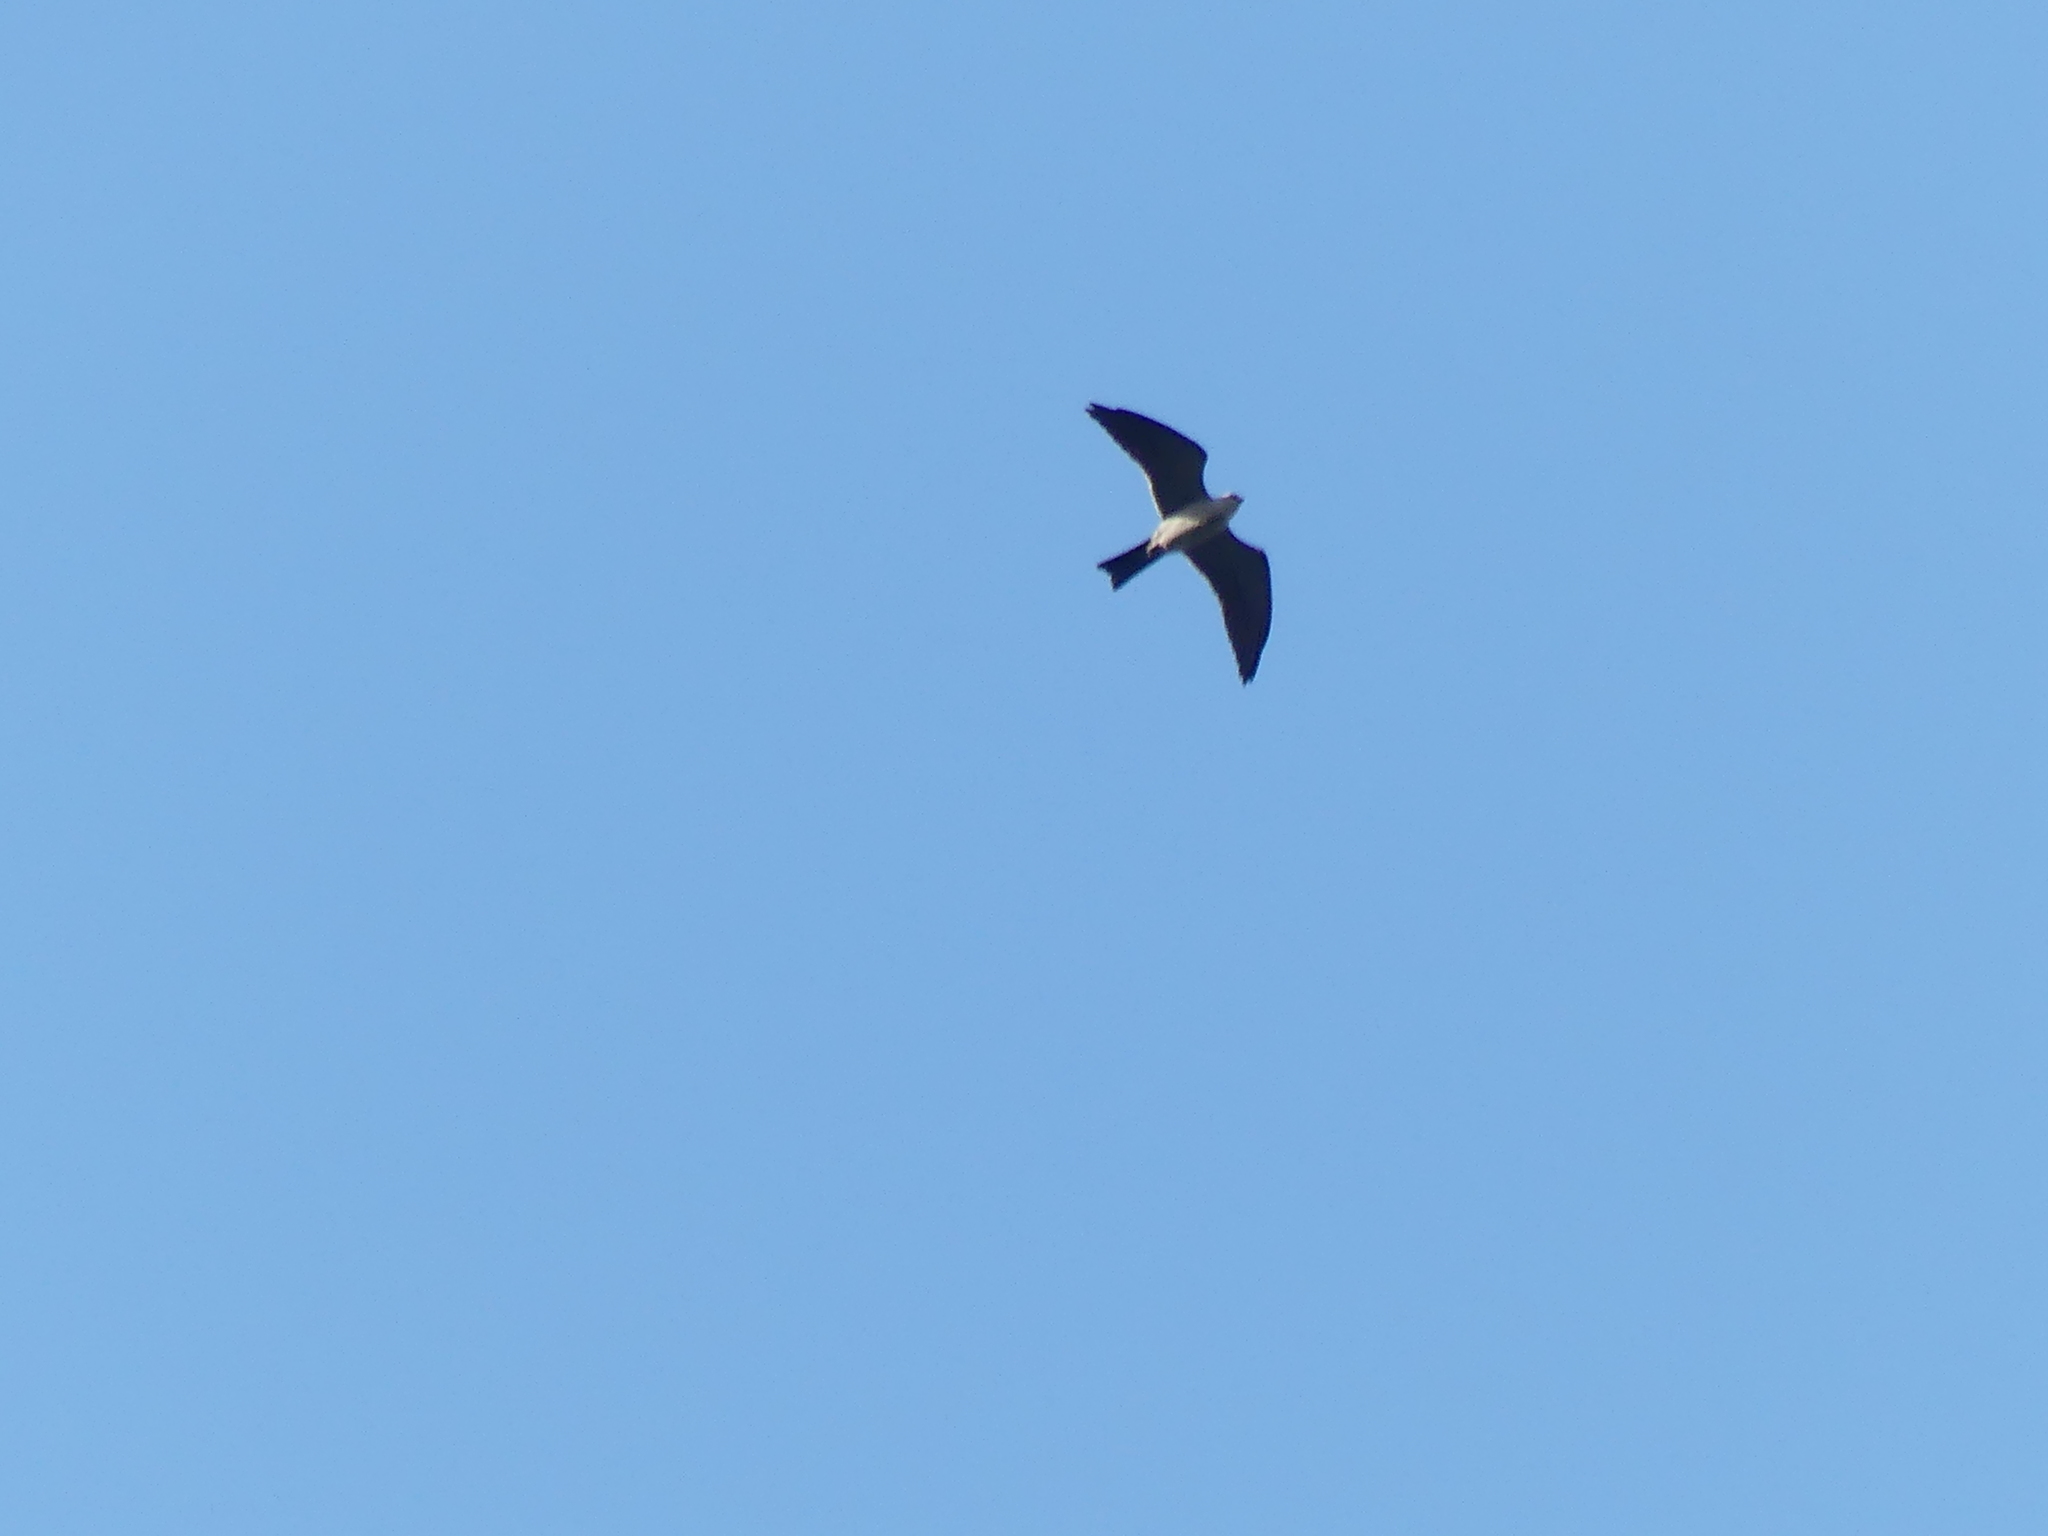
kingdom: Animalia
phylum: Chordata
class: Aves
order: Accipitriformes
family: Accipitridae
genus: Ictinia
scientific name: Ictinia mississippiensis
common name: Mississippi kite
